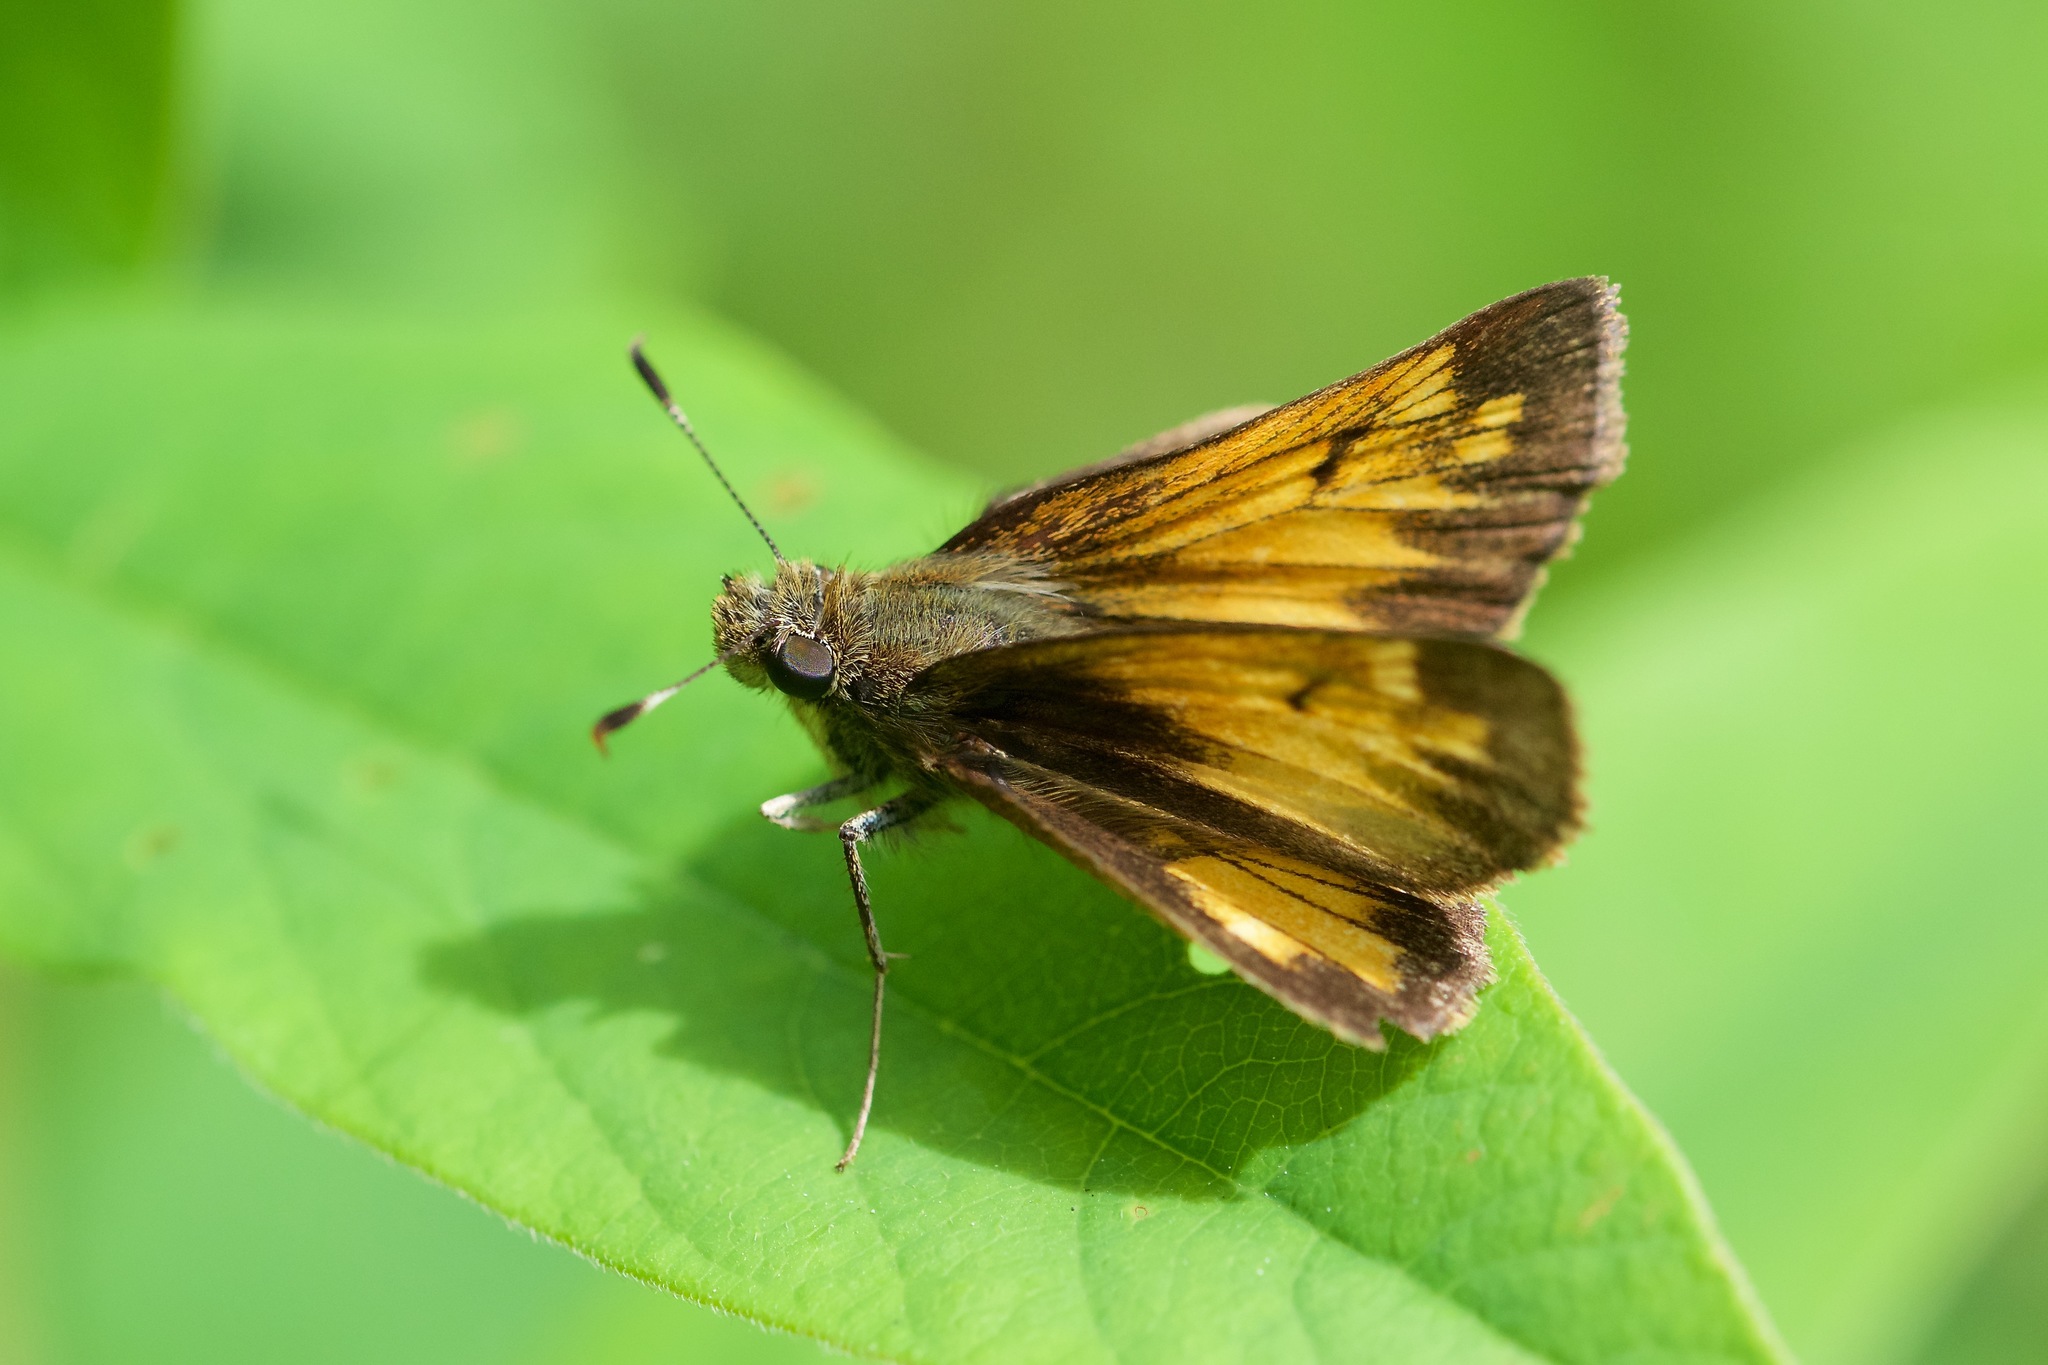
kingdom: Animalia
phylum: Arthropoda
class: Insecta
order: Lepidoptera
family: Hesperiidae
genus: Lon
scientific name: Lon hobomok
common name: Hobomok skipper
